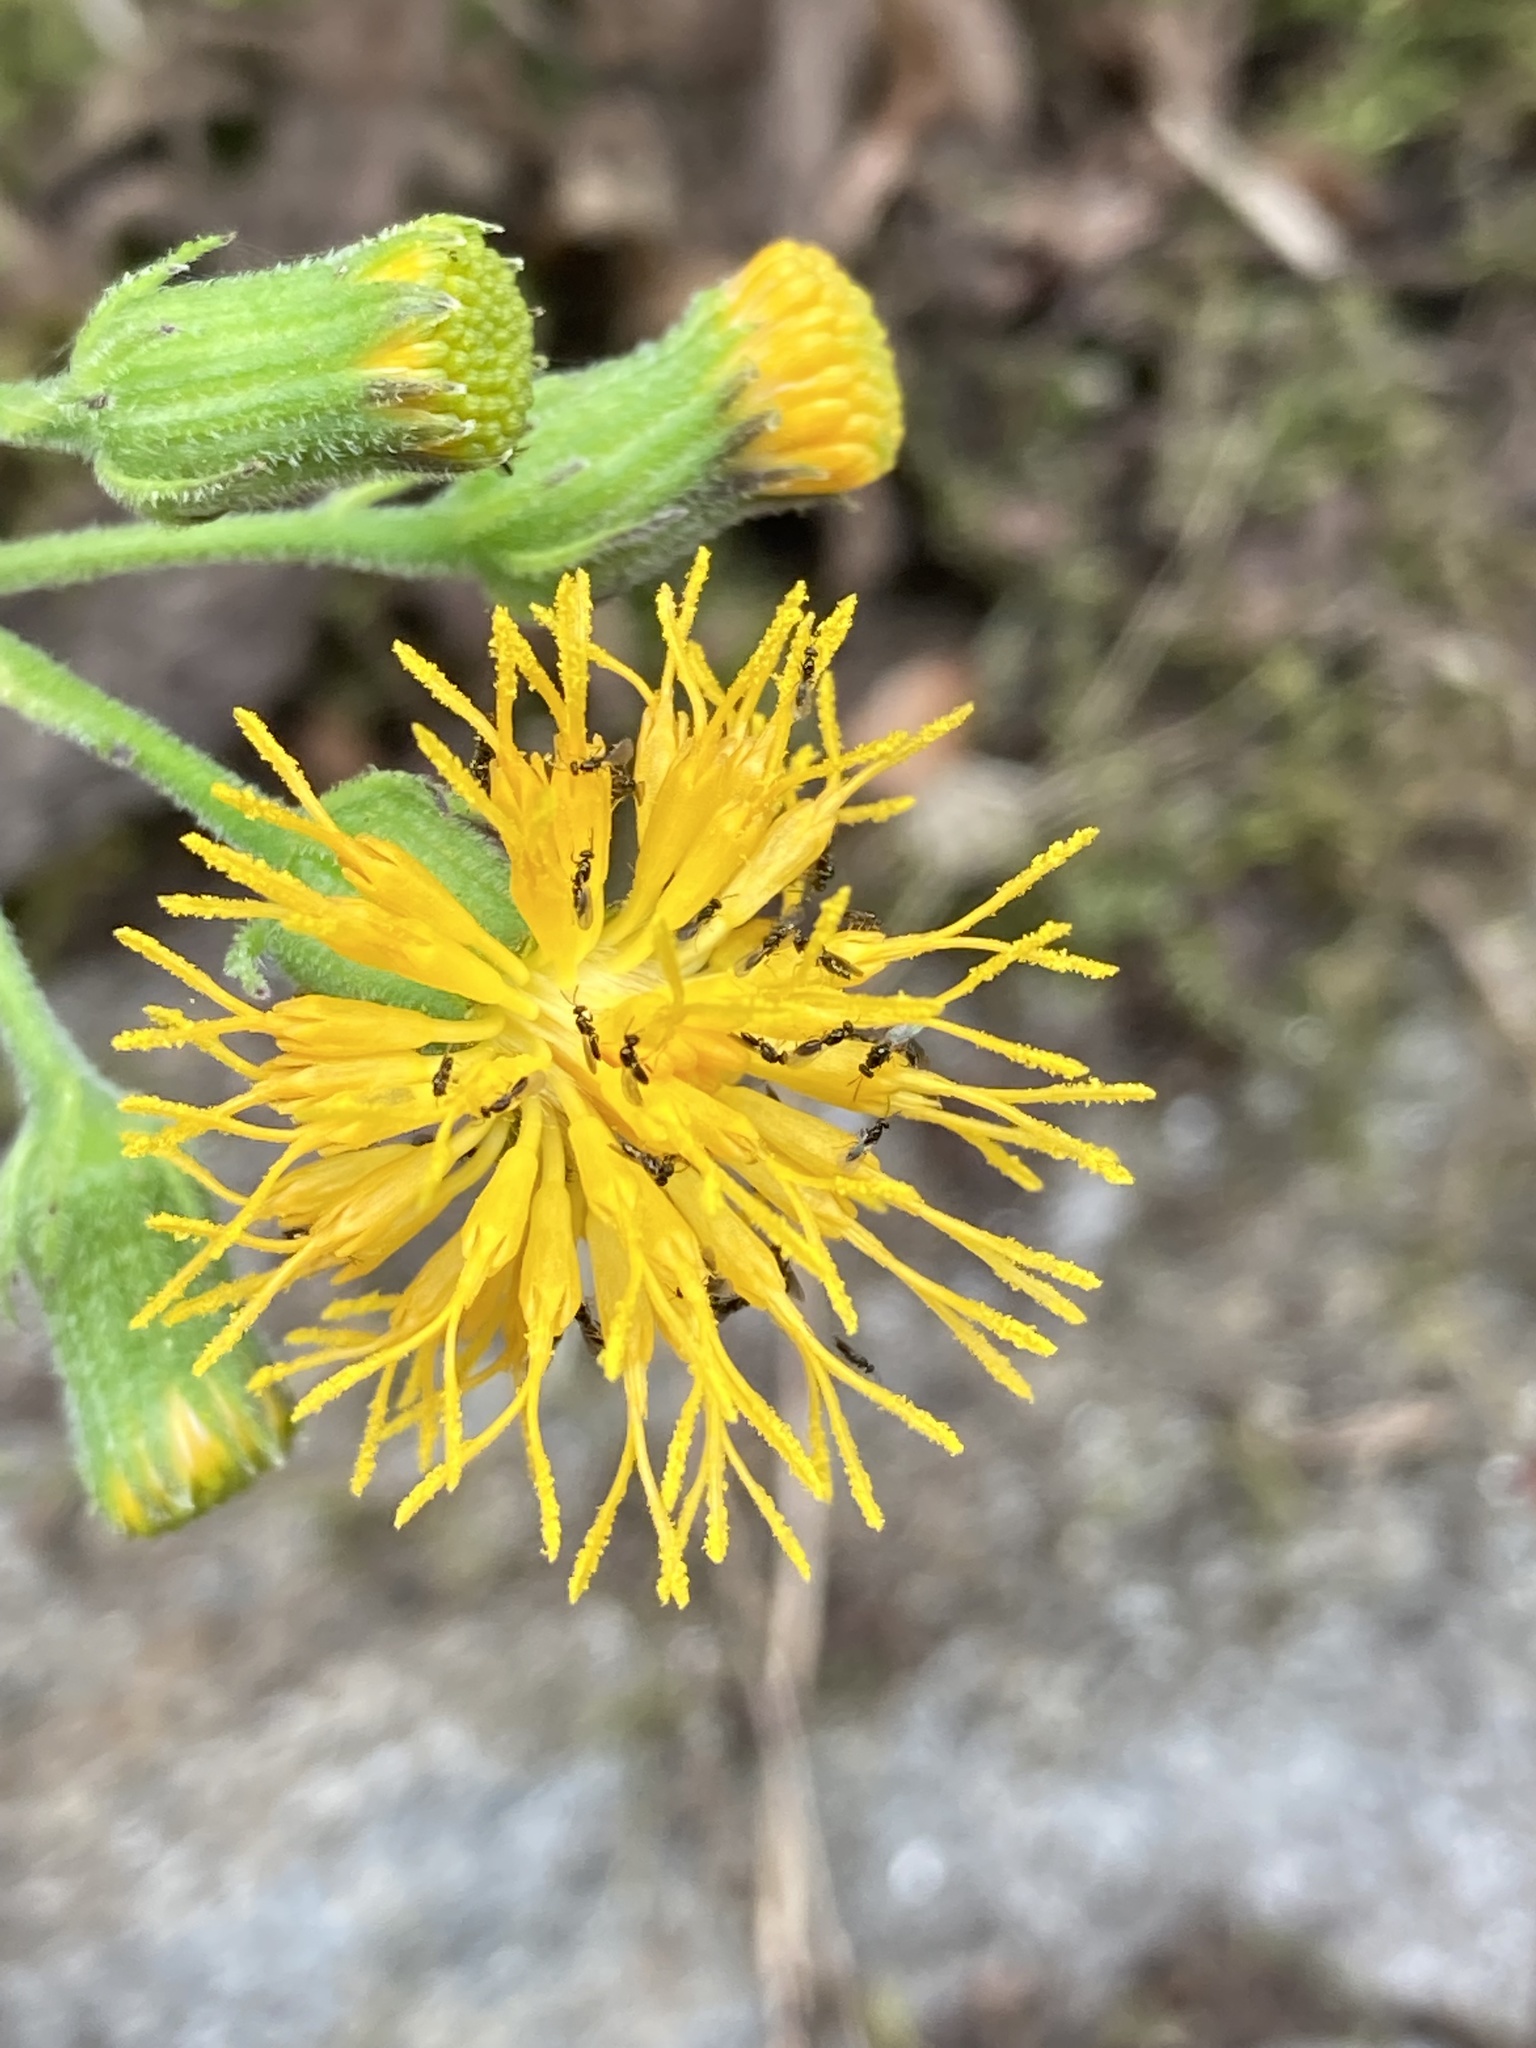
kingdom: Plantae
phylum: Tracheophyta
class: Magnoliopsida
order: Asterales
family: Asteraceae
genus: Gynura
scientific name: Gynura nepalensis
